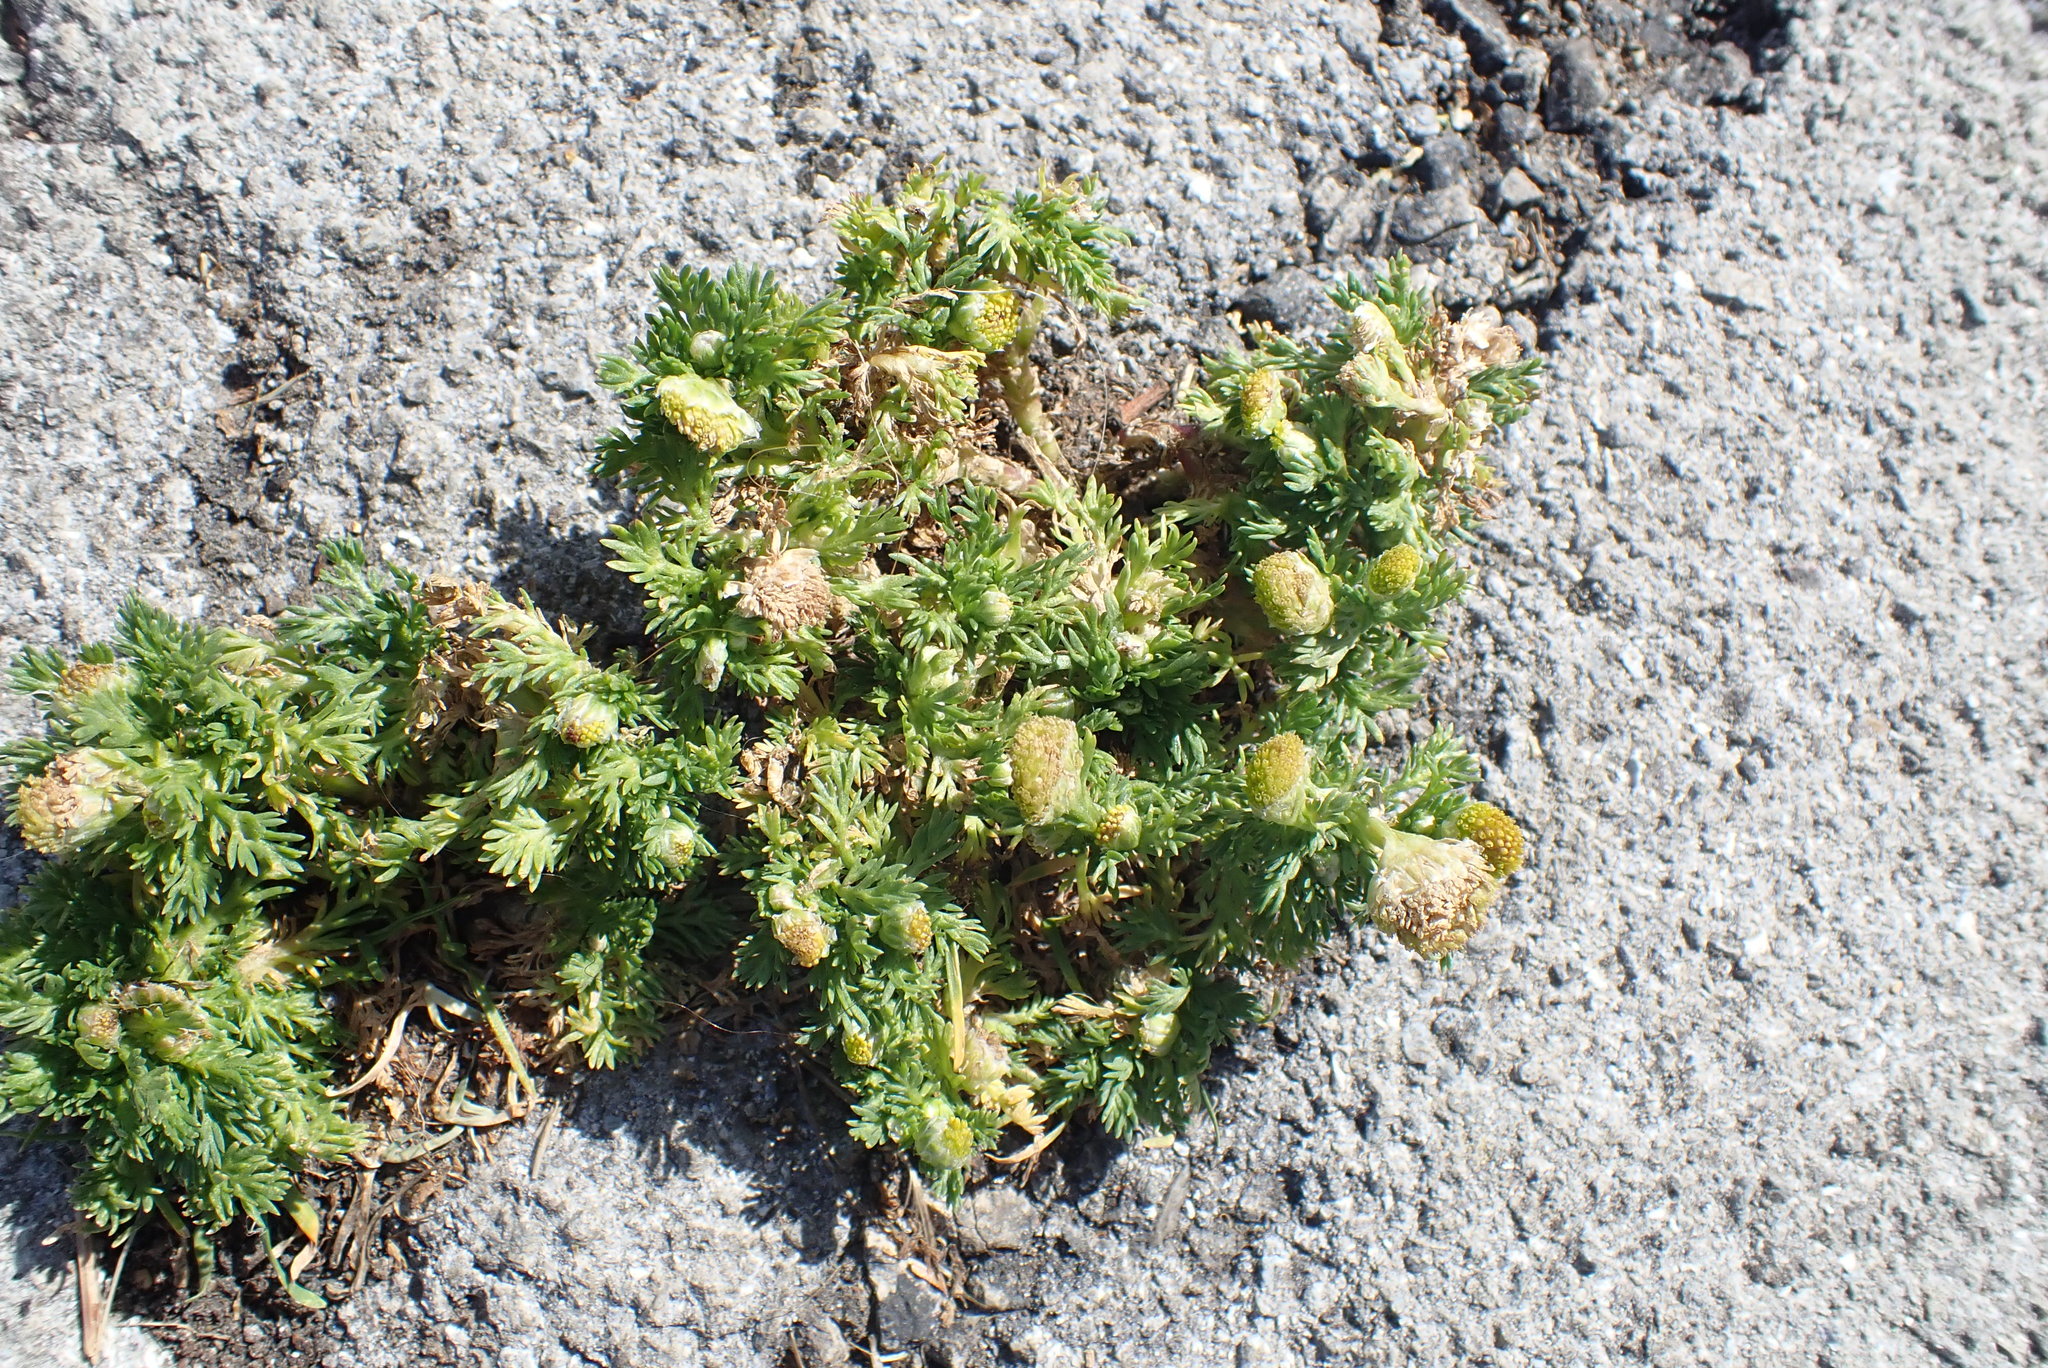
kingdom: Plantae
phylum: Tracheophyta
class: Magnoliopsida
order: Asterales
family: Asteraceae
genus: Matricaria
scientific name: Matricaria discoidea
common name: Disc mayweed
